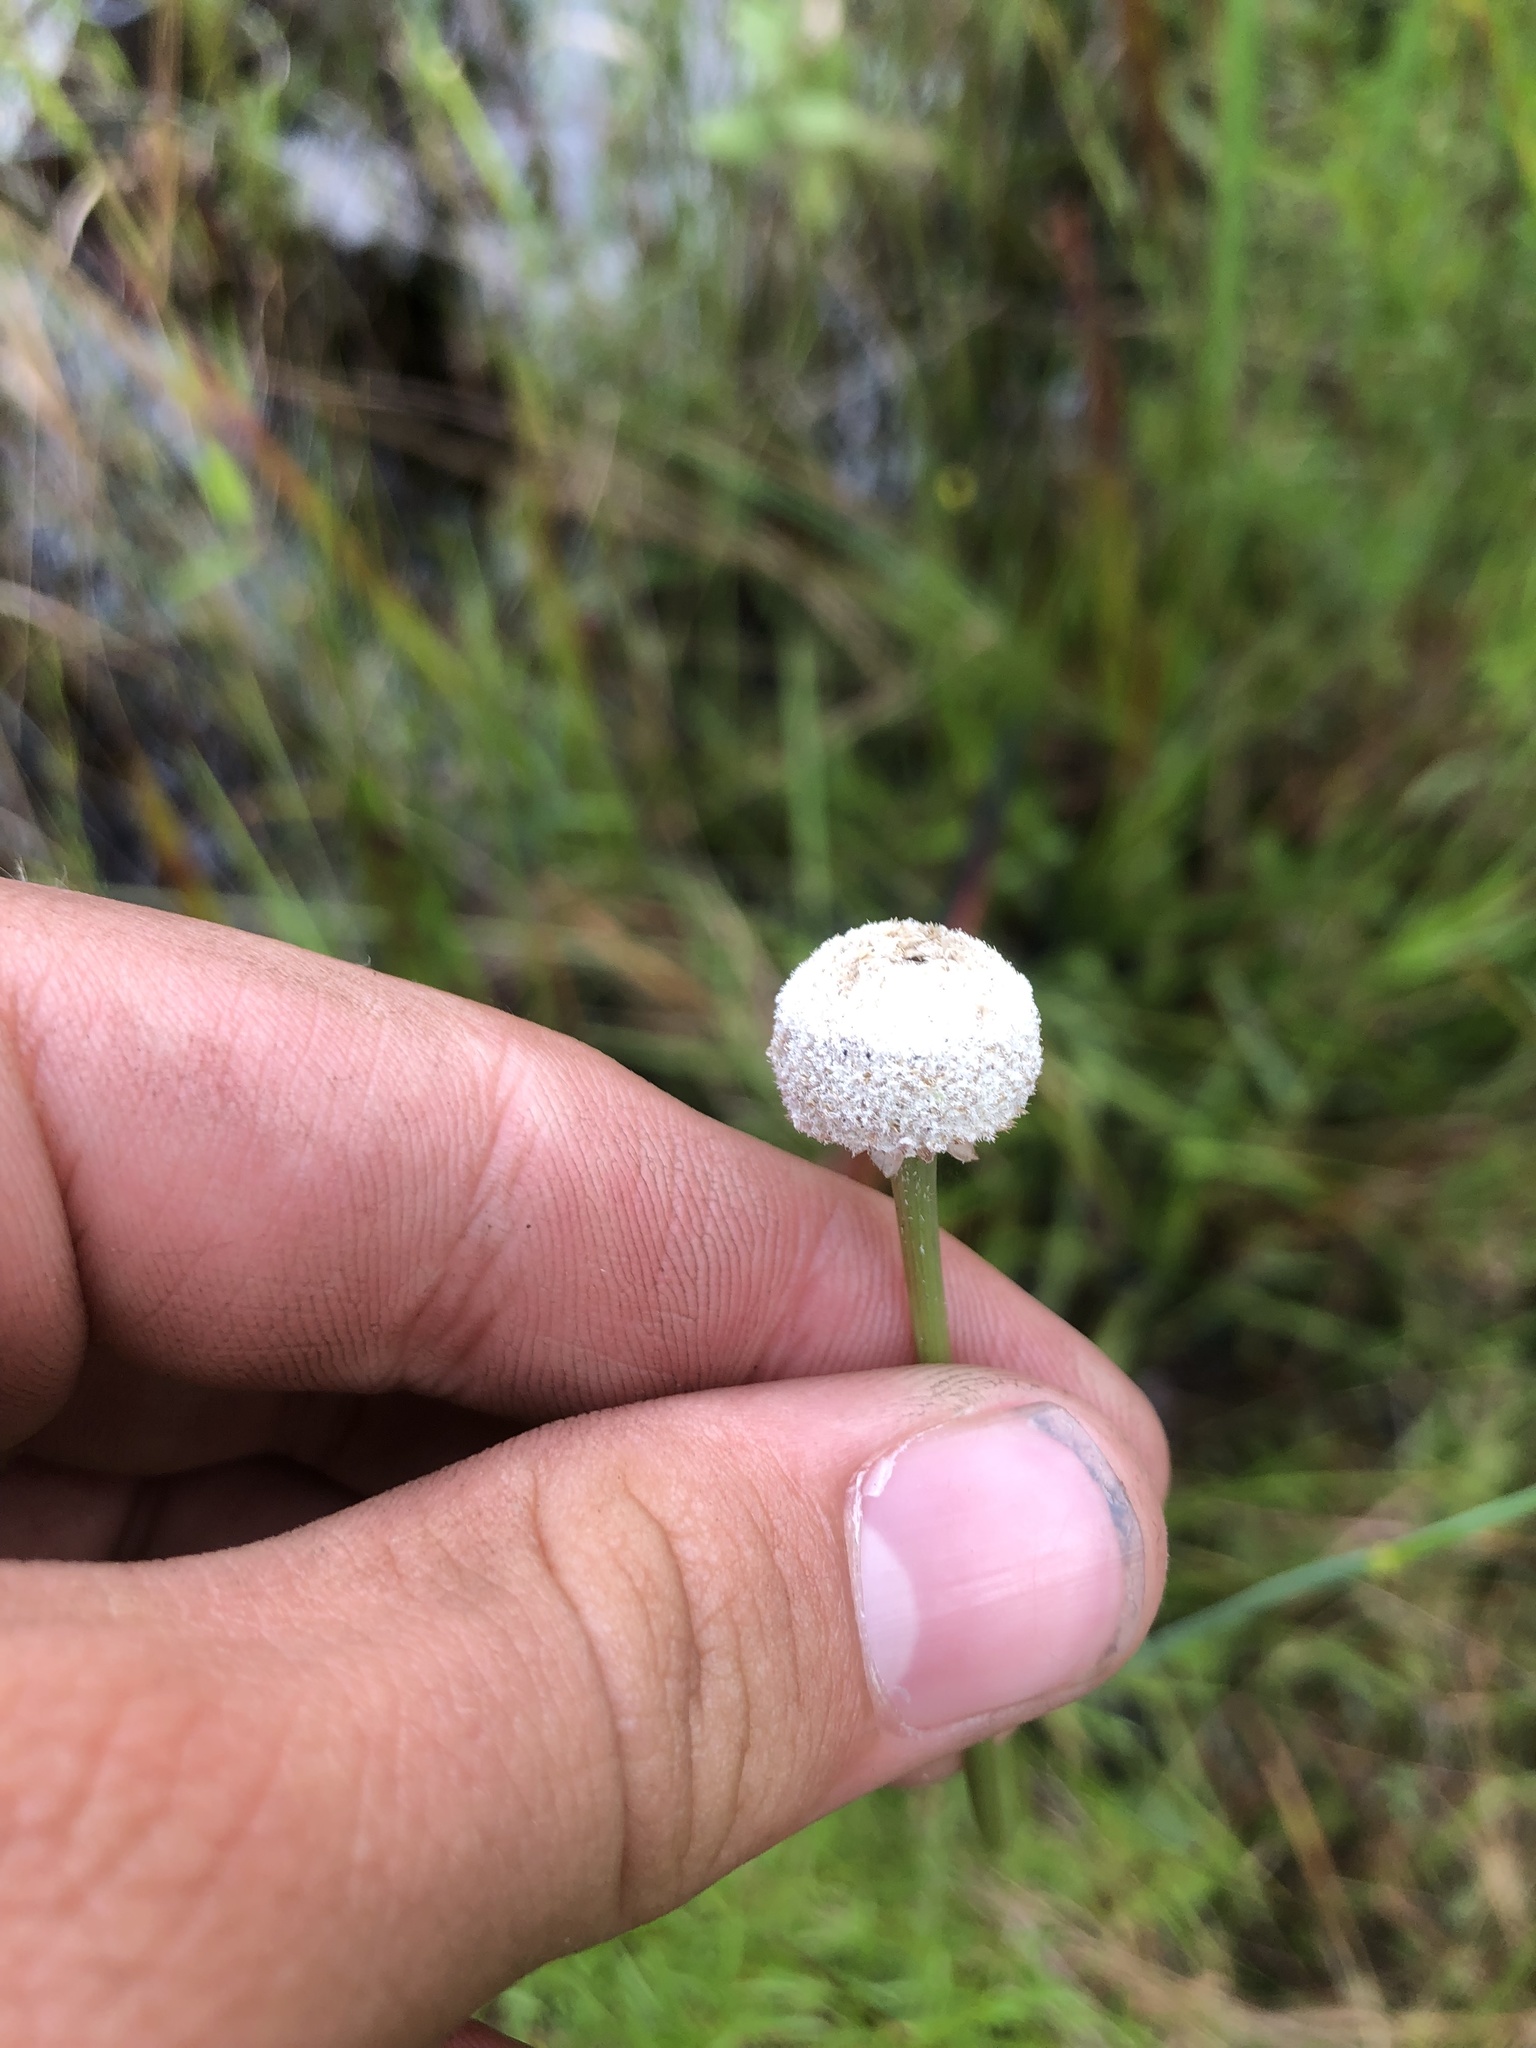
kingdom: Plantae
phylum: Tracheophyta
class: Liliopsida
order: Poales
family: Eriocaulaceae
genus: Eriocaulon
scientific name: Eriocaulon decangulare
